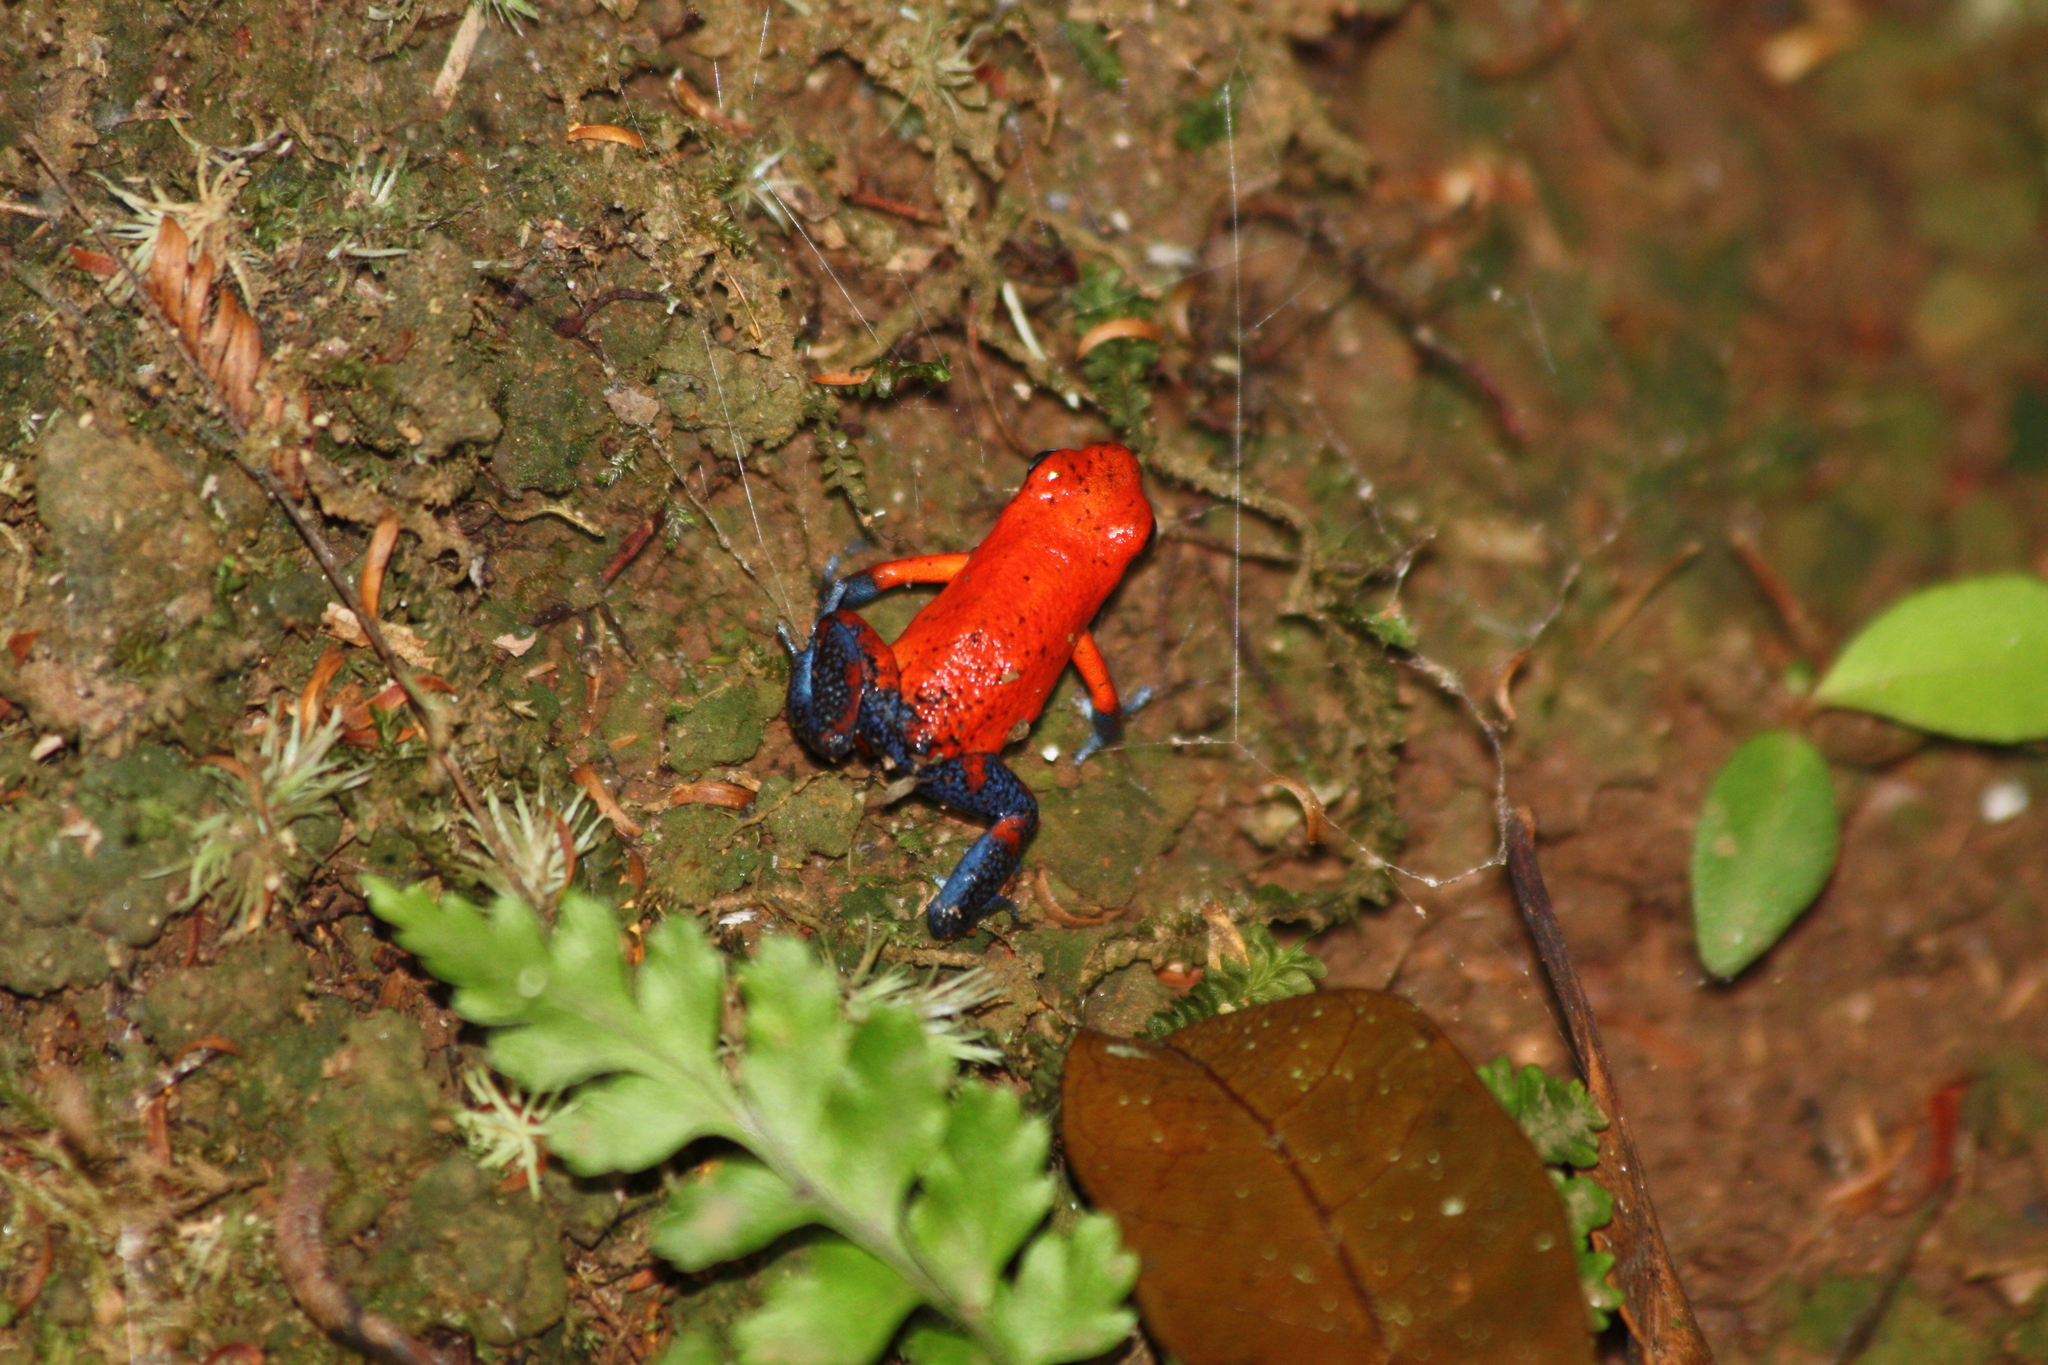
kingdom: Animalia
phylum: Chordata
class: Amphibia
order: Anura
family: Dendrobatidae
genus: Oophaga
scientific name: Oophaga pumilio
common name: Flaming poison frog
